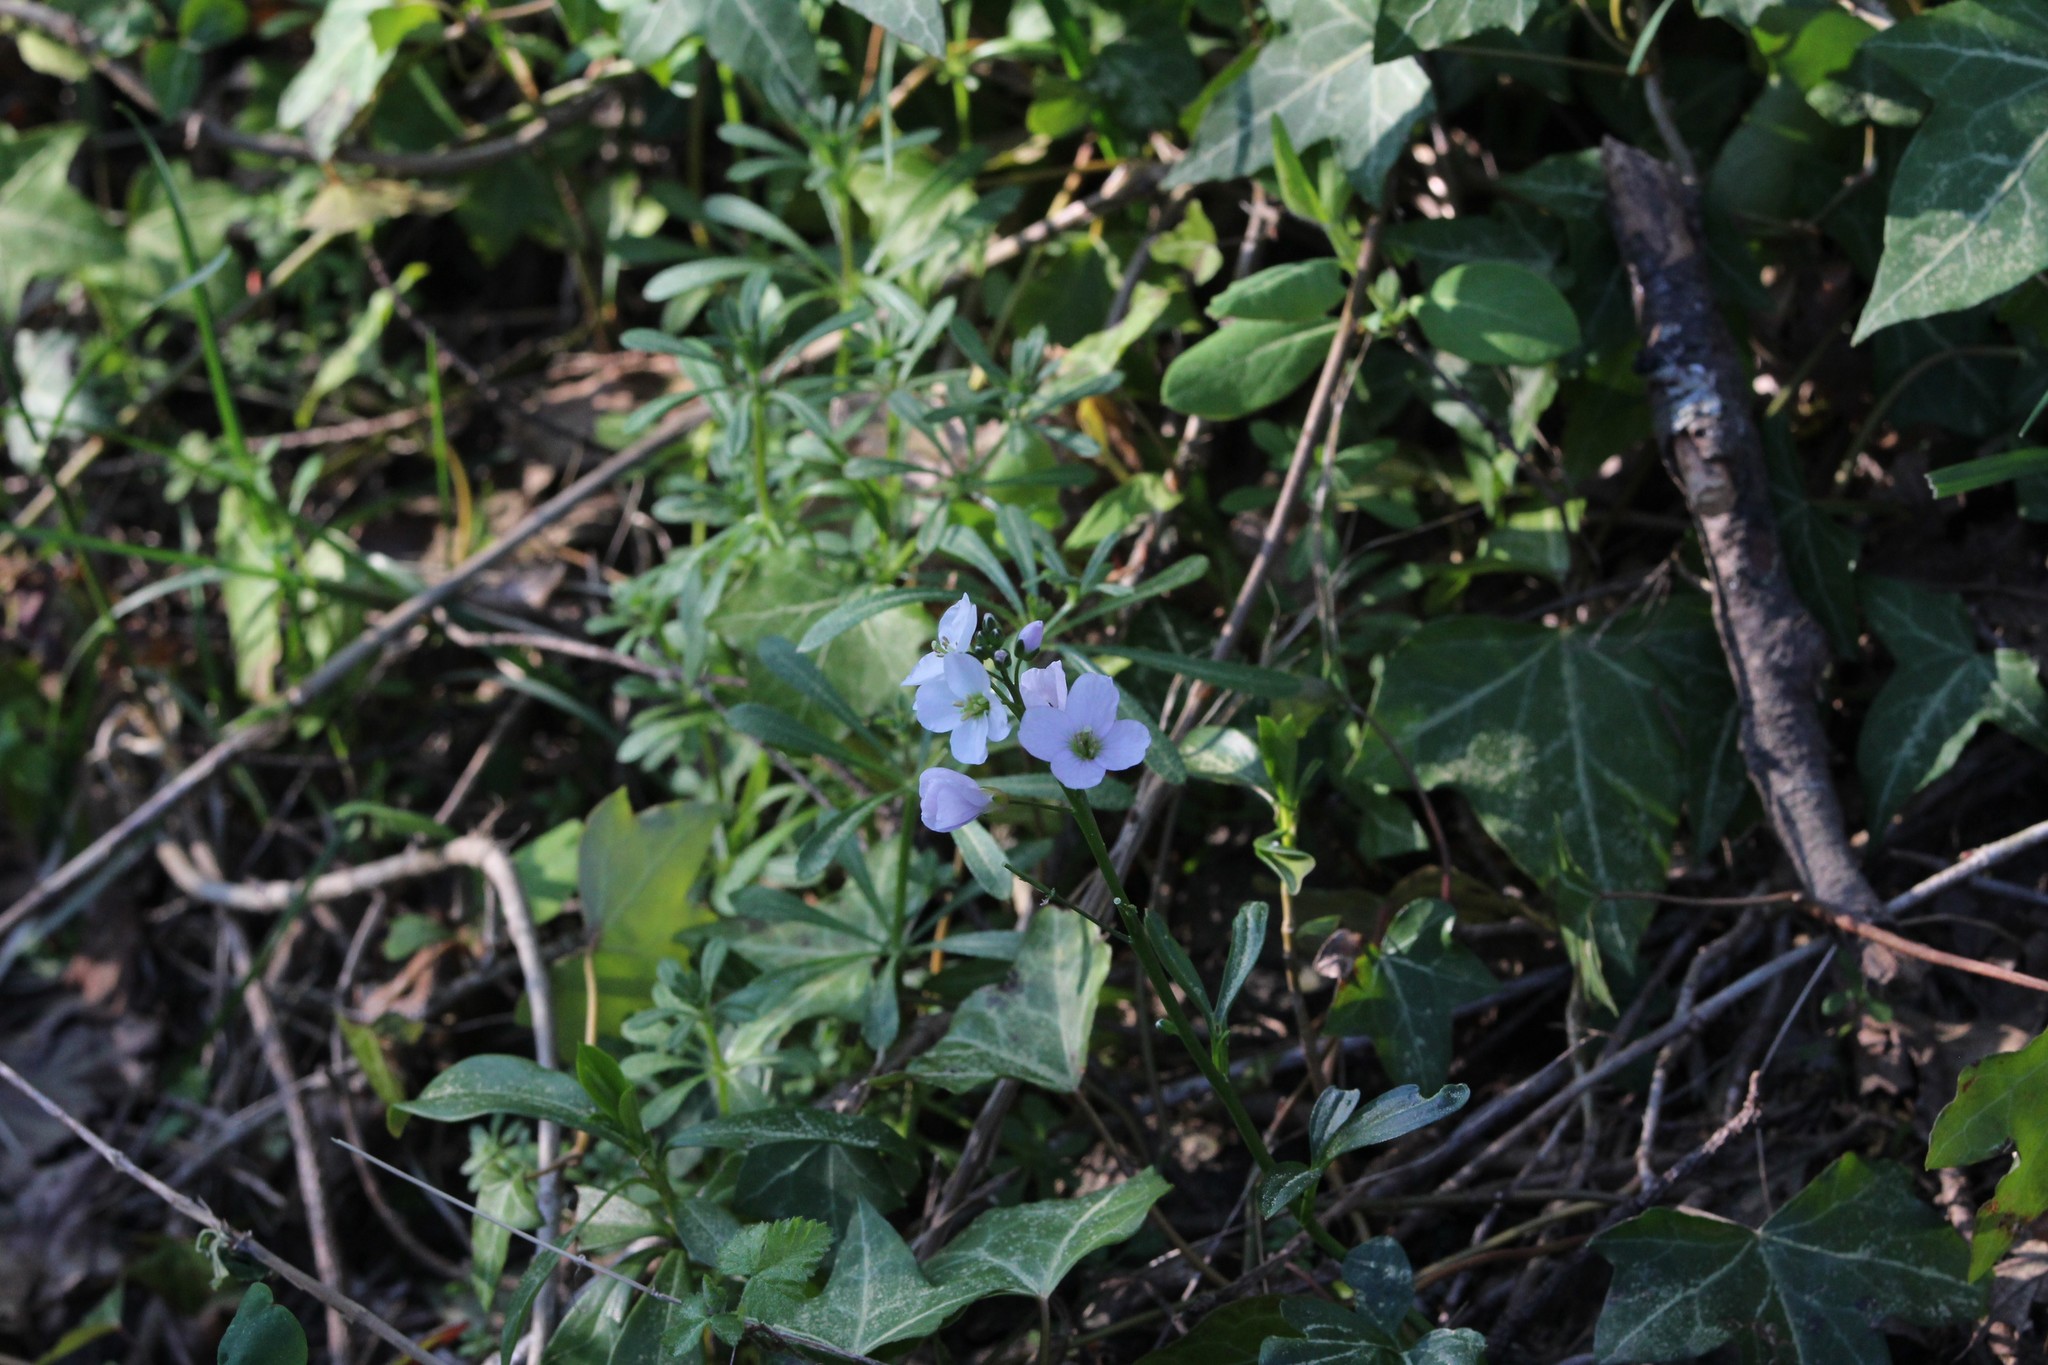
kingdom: Plantae
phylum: Tracheophyta
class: Magnoliopsida
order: Brassicales
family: Brassicaceae
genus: Cardamine
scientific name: Cardamine nuttallii
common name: Nuttall's toothwort
